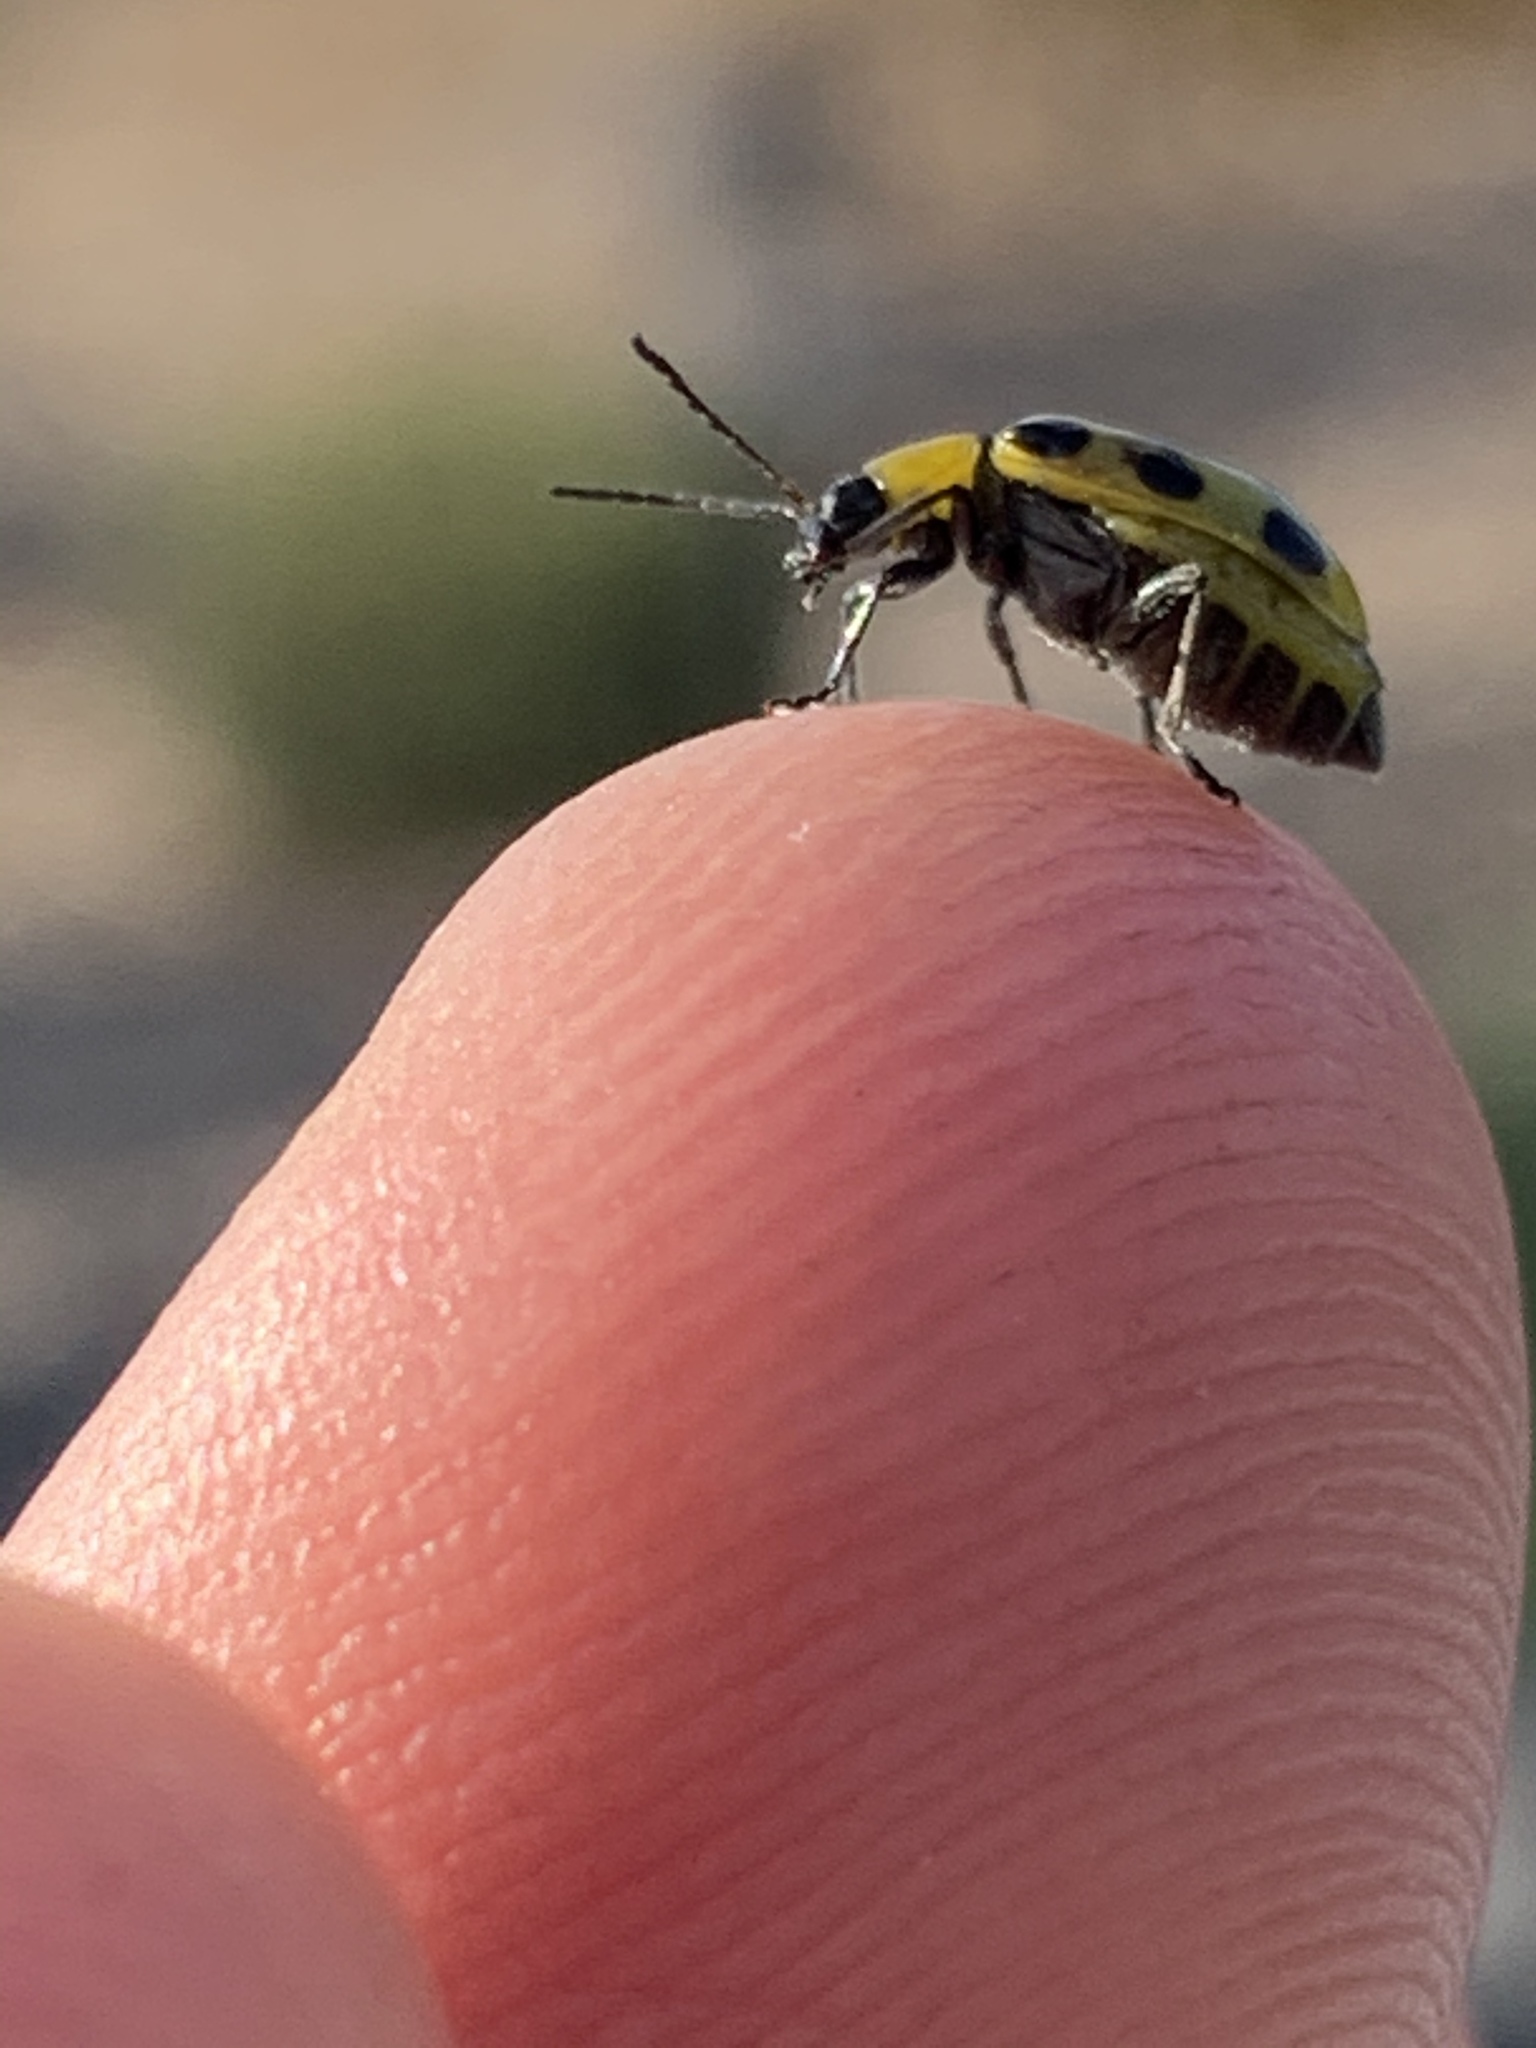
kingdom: Animalia
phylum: Arthropoda
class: Insecta
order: Coleoptera
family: Chrysomelidae
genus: Diabrotica
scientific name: Diabrotica undecimpunctata
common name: Spotted cucumber beetle
